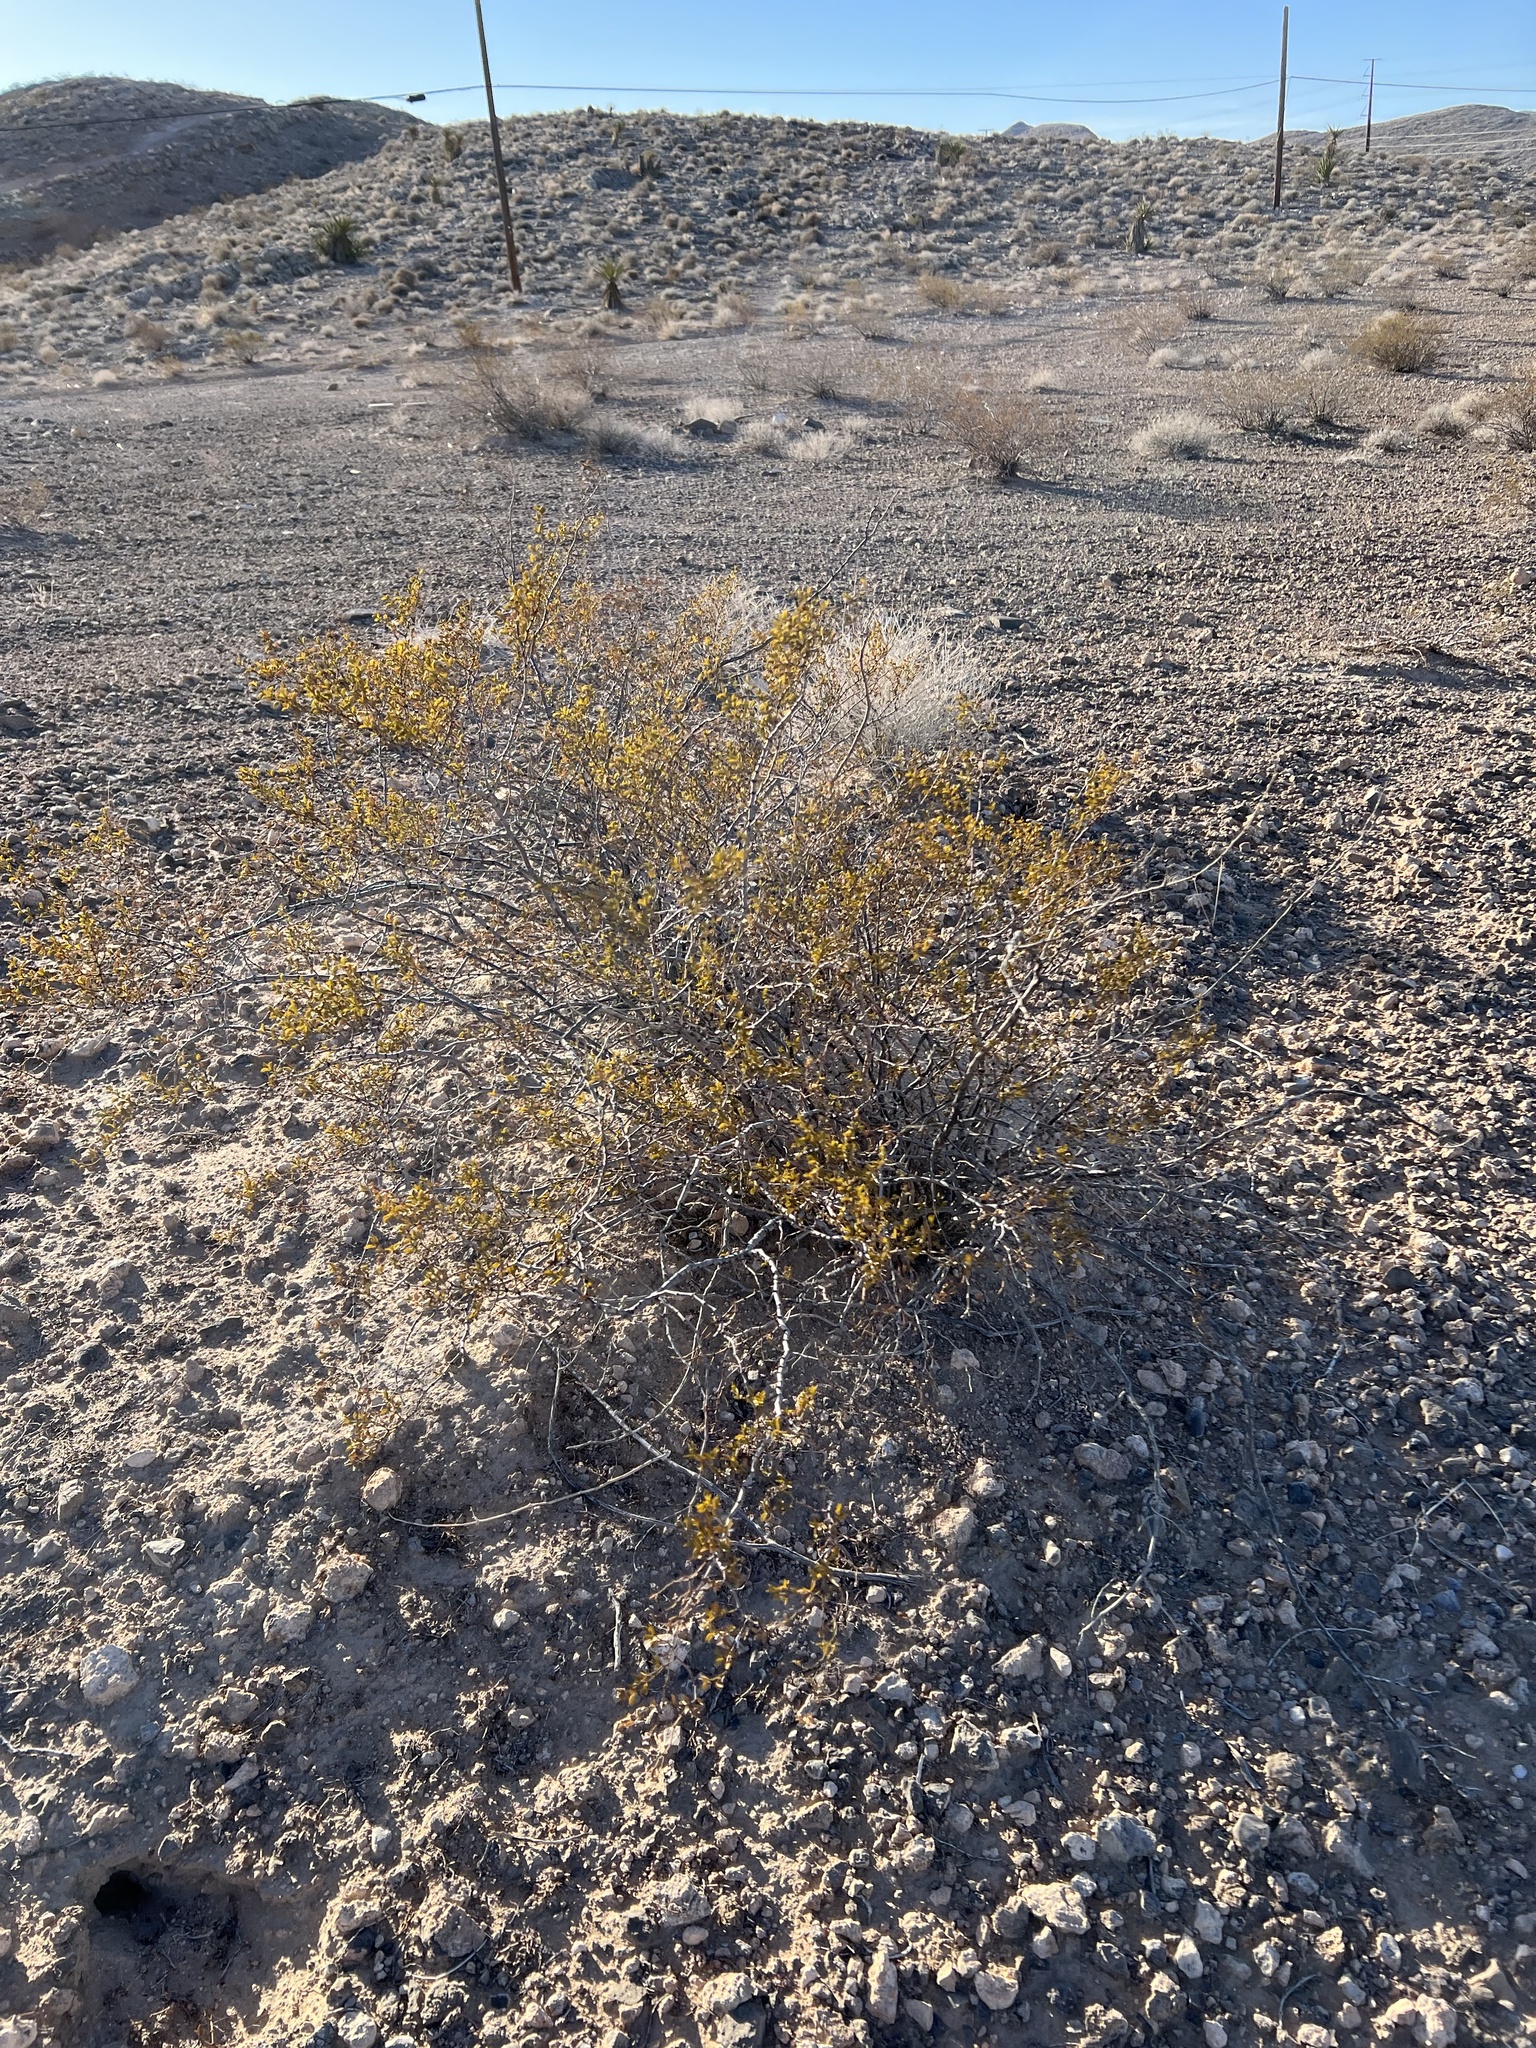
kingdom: Plantae
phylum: Tracheophyta
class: Magnoliopsida
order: Zygophyllales
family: Zygophyllaceae
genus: Larrea
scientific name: Larrea tridentata
